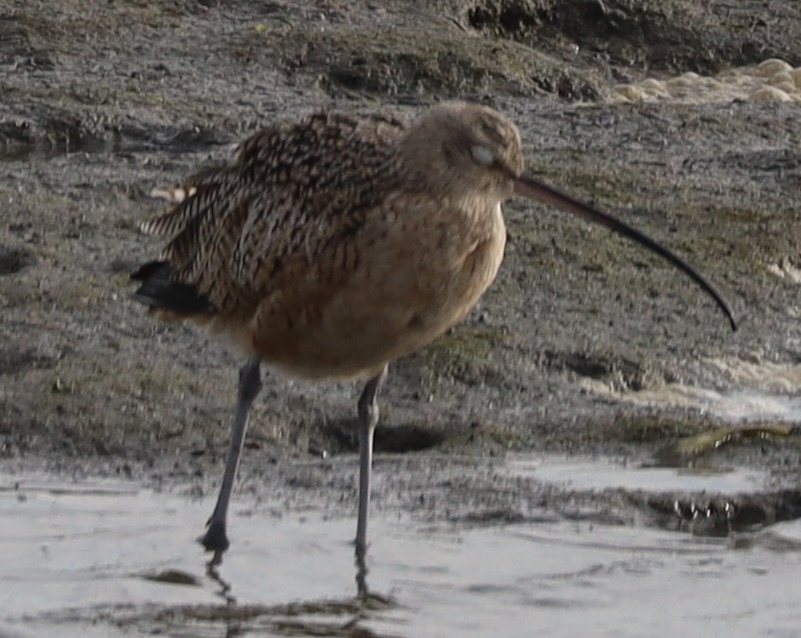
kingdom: Animalia
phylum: Chordata
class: Aves
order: Charadriiformes
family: Scolopacidae
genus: Numenius
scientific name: Numenius americanus
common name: Long-billed curlew
